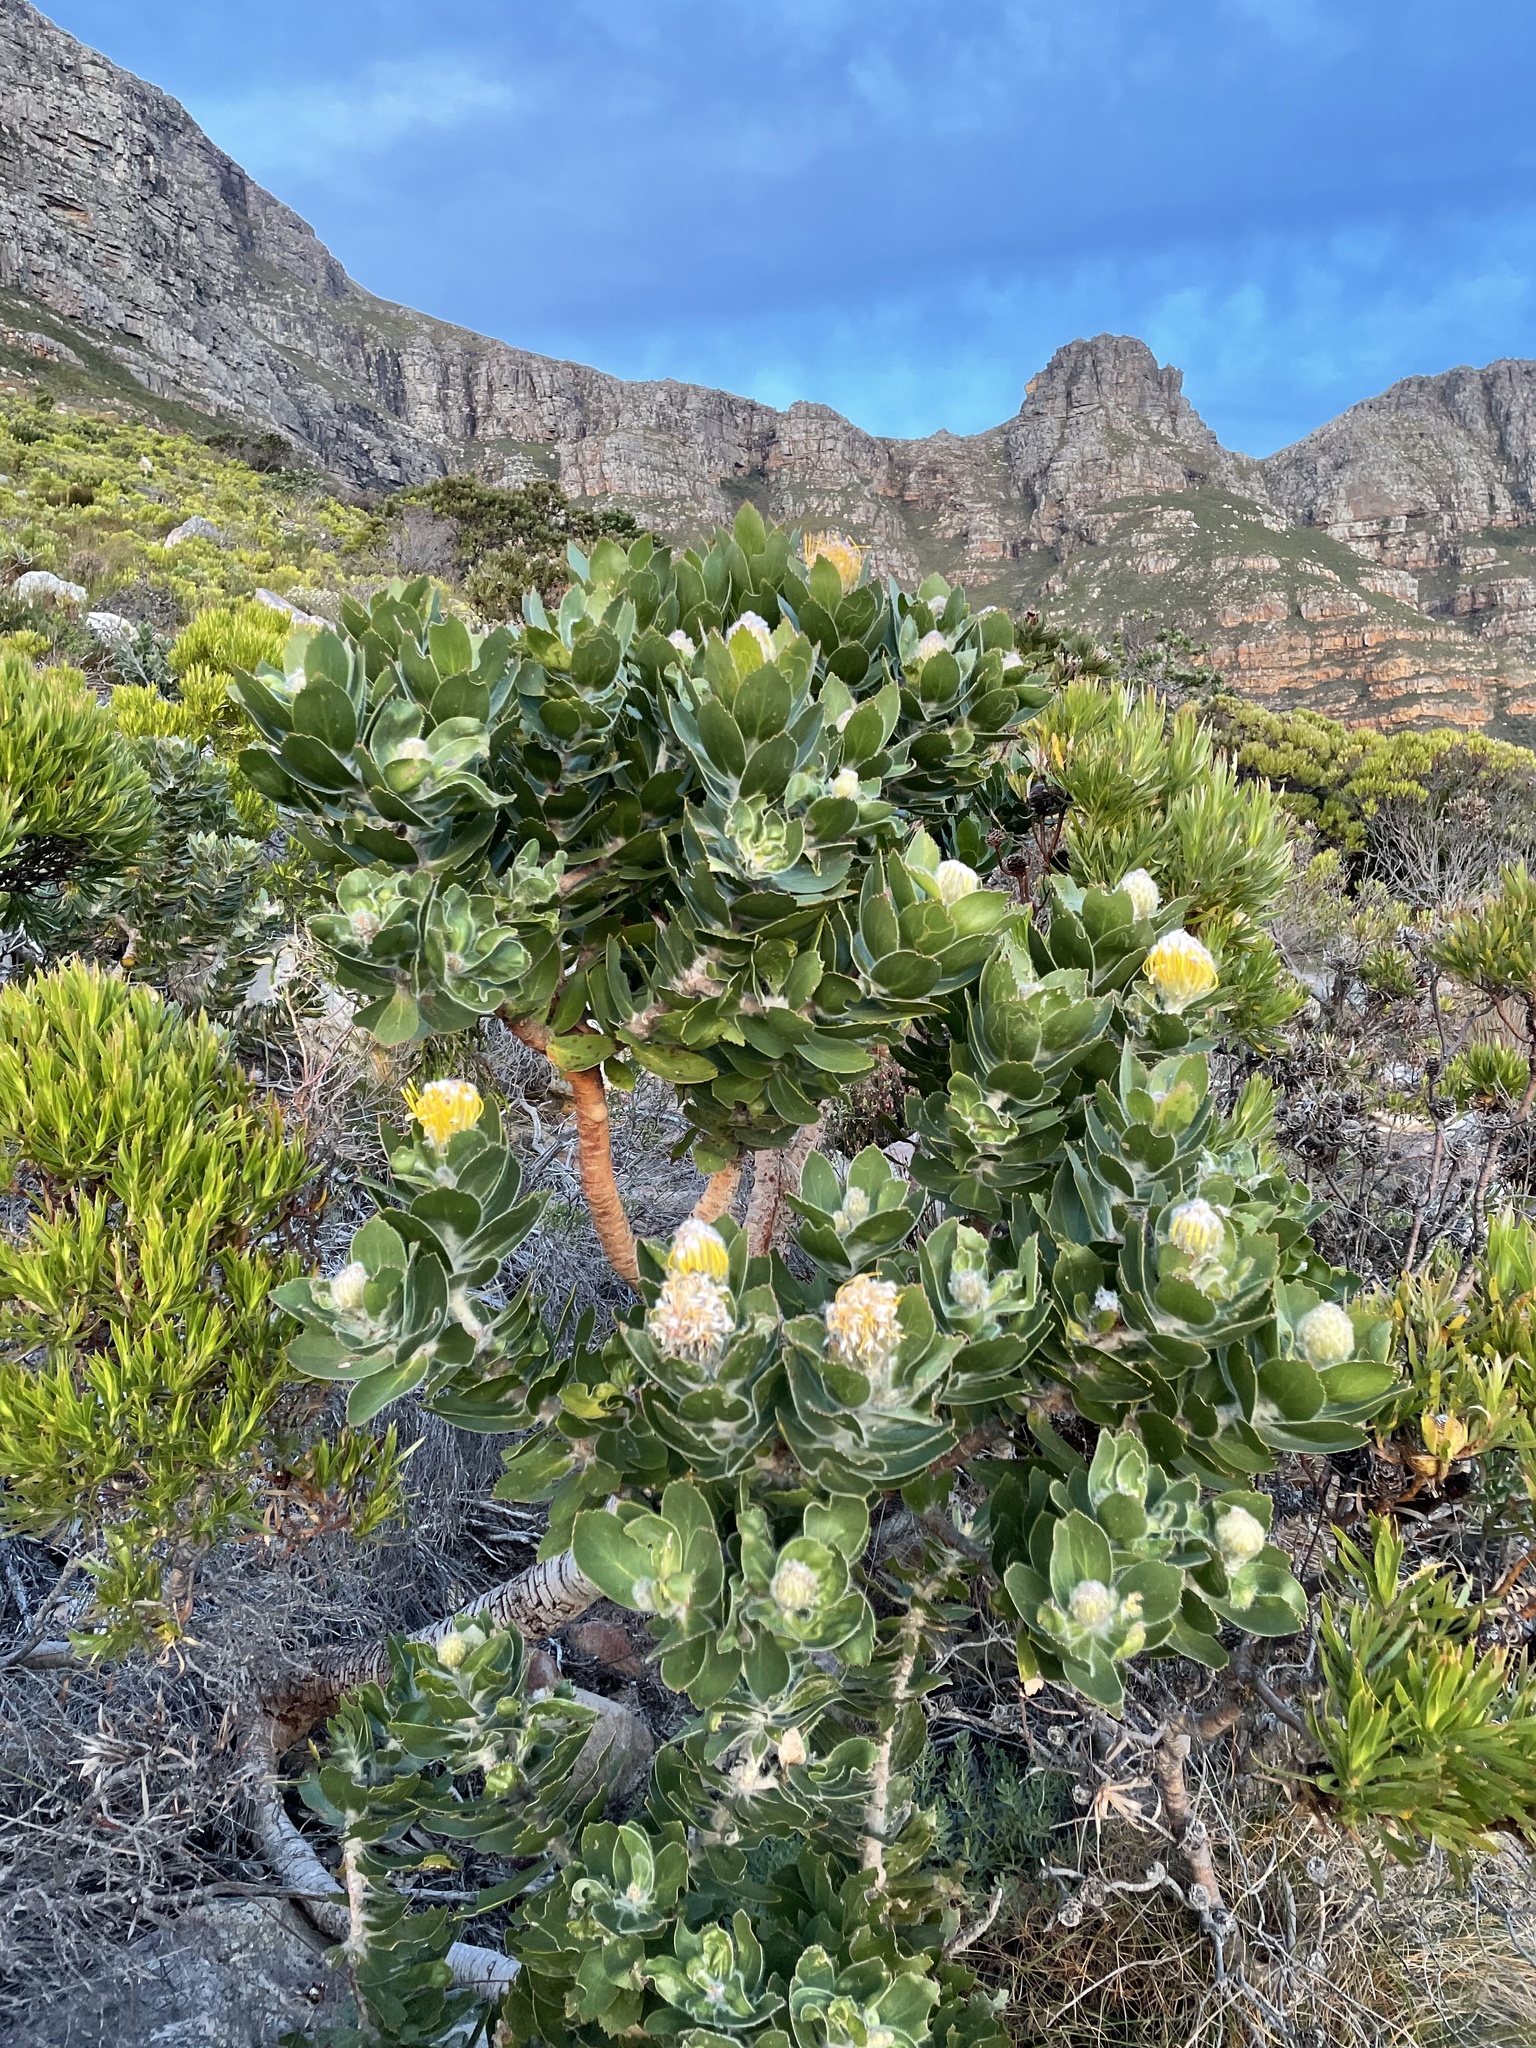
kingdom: Plantae
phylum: Tracheophyta
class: Magnoliopsida
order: Proteales
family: Proteaceae
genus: Leucospermum
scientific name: Leucospermum conocarpodendron
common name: Tree pincushion
